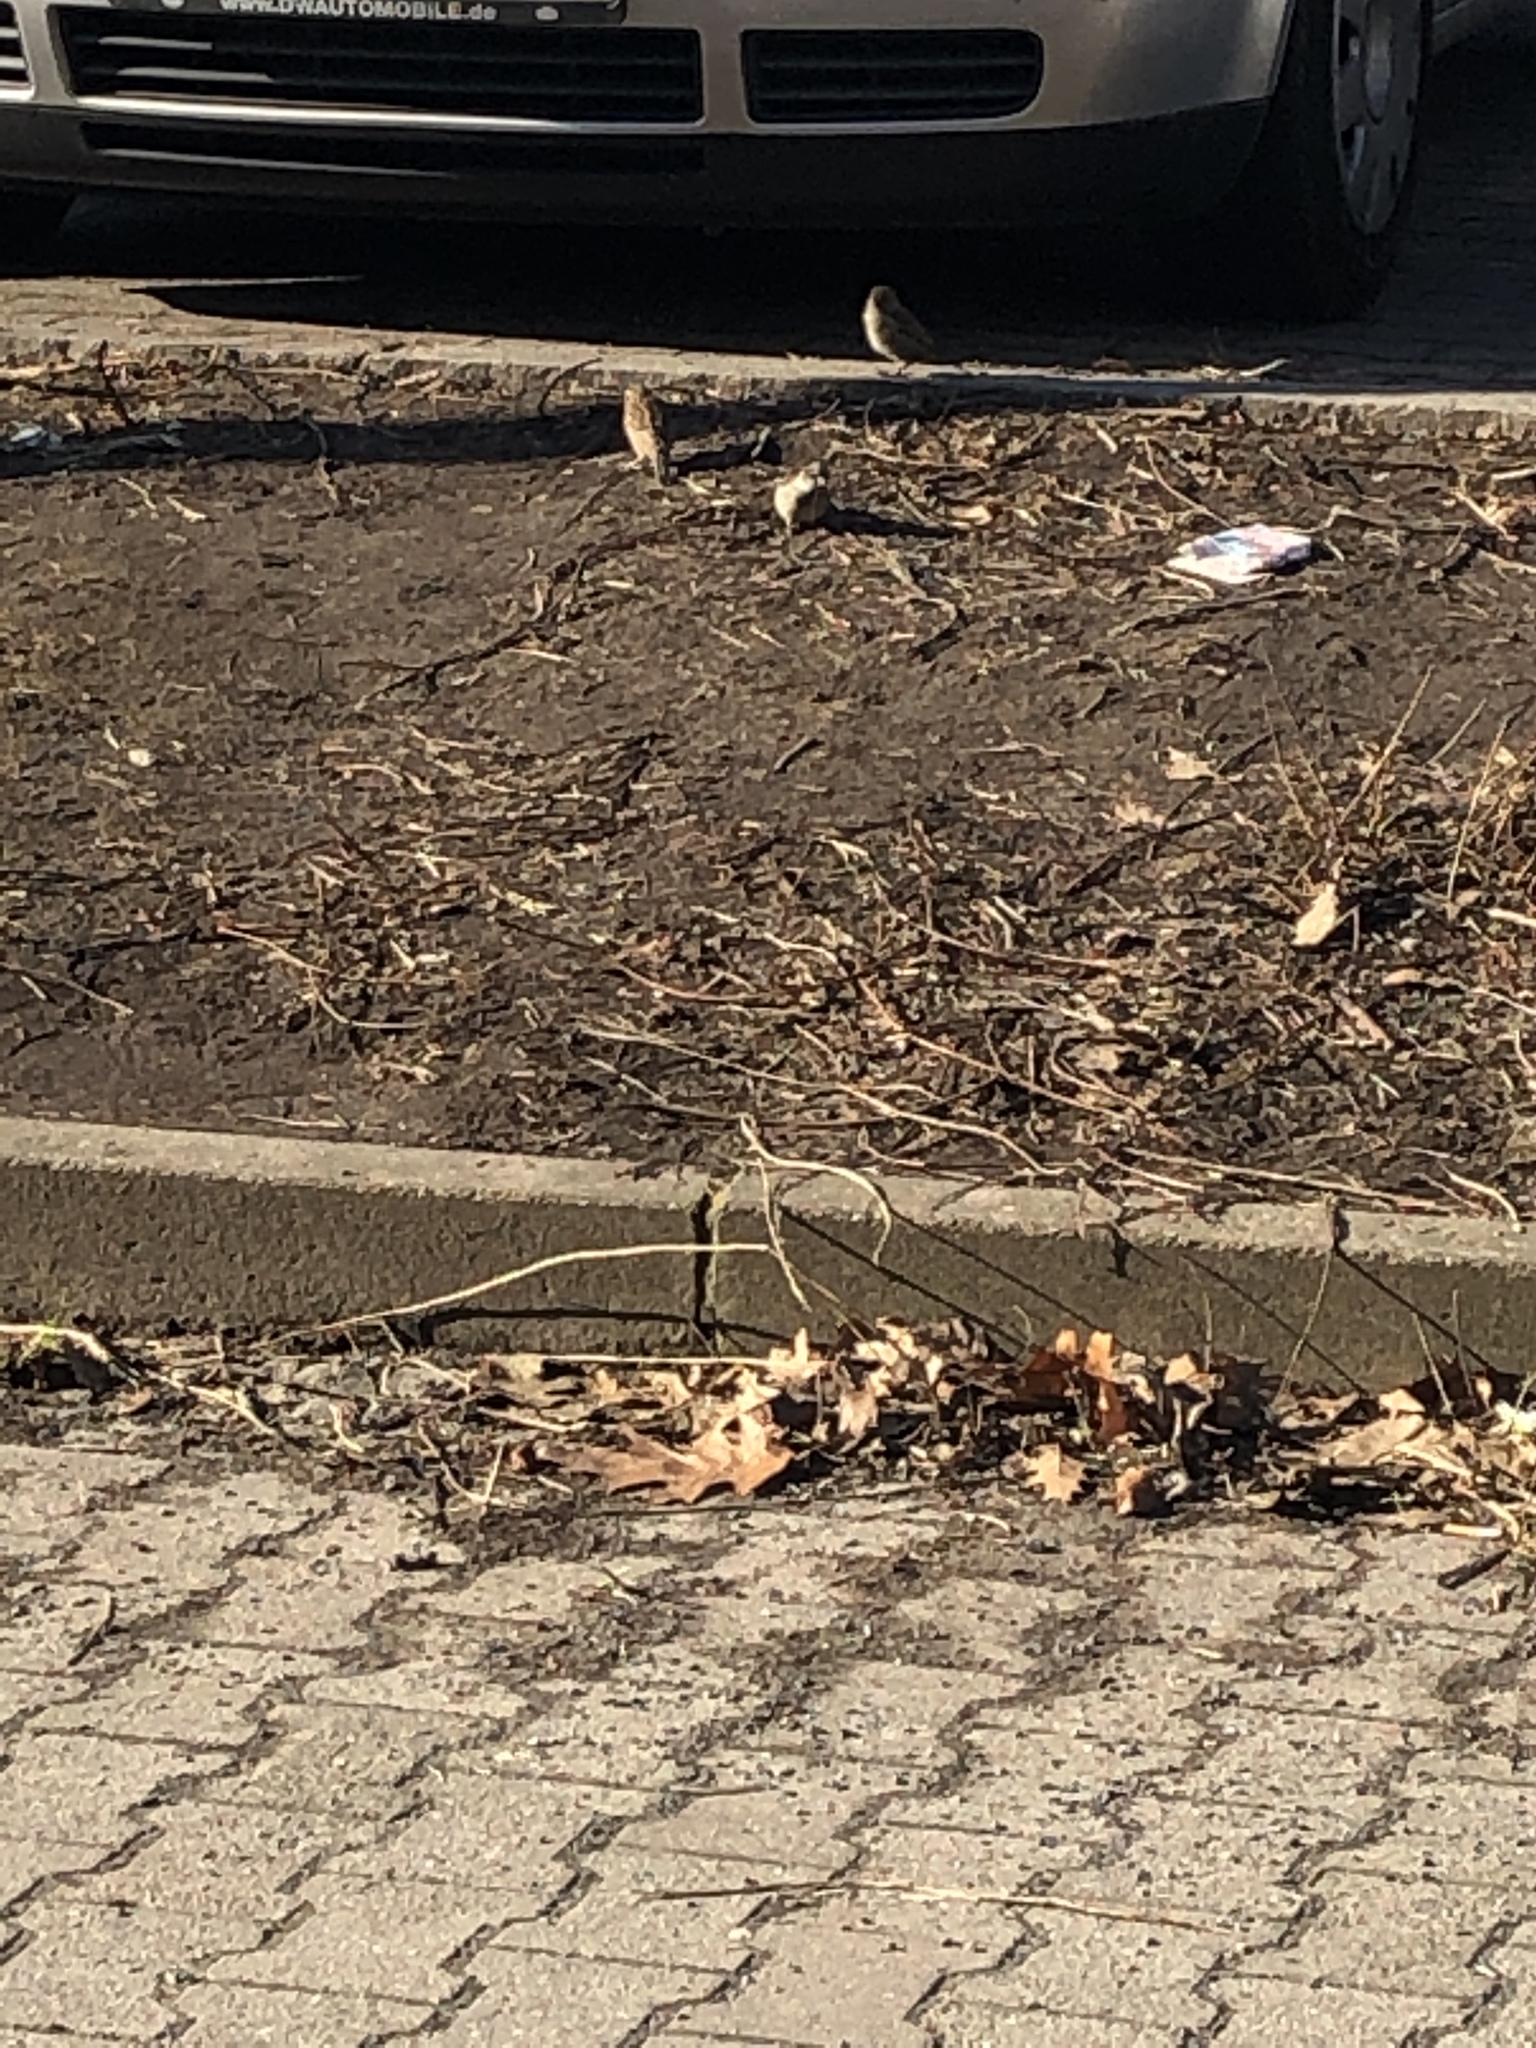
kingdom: Animalia
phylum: Chordata
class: Aves
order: Passeriformes
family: Passeridae
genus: Passer
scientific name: Passer domesticus
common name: House sparrow
